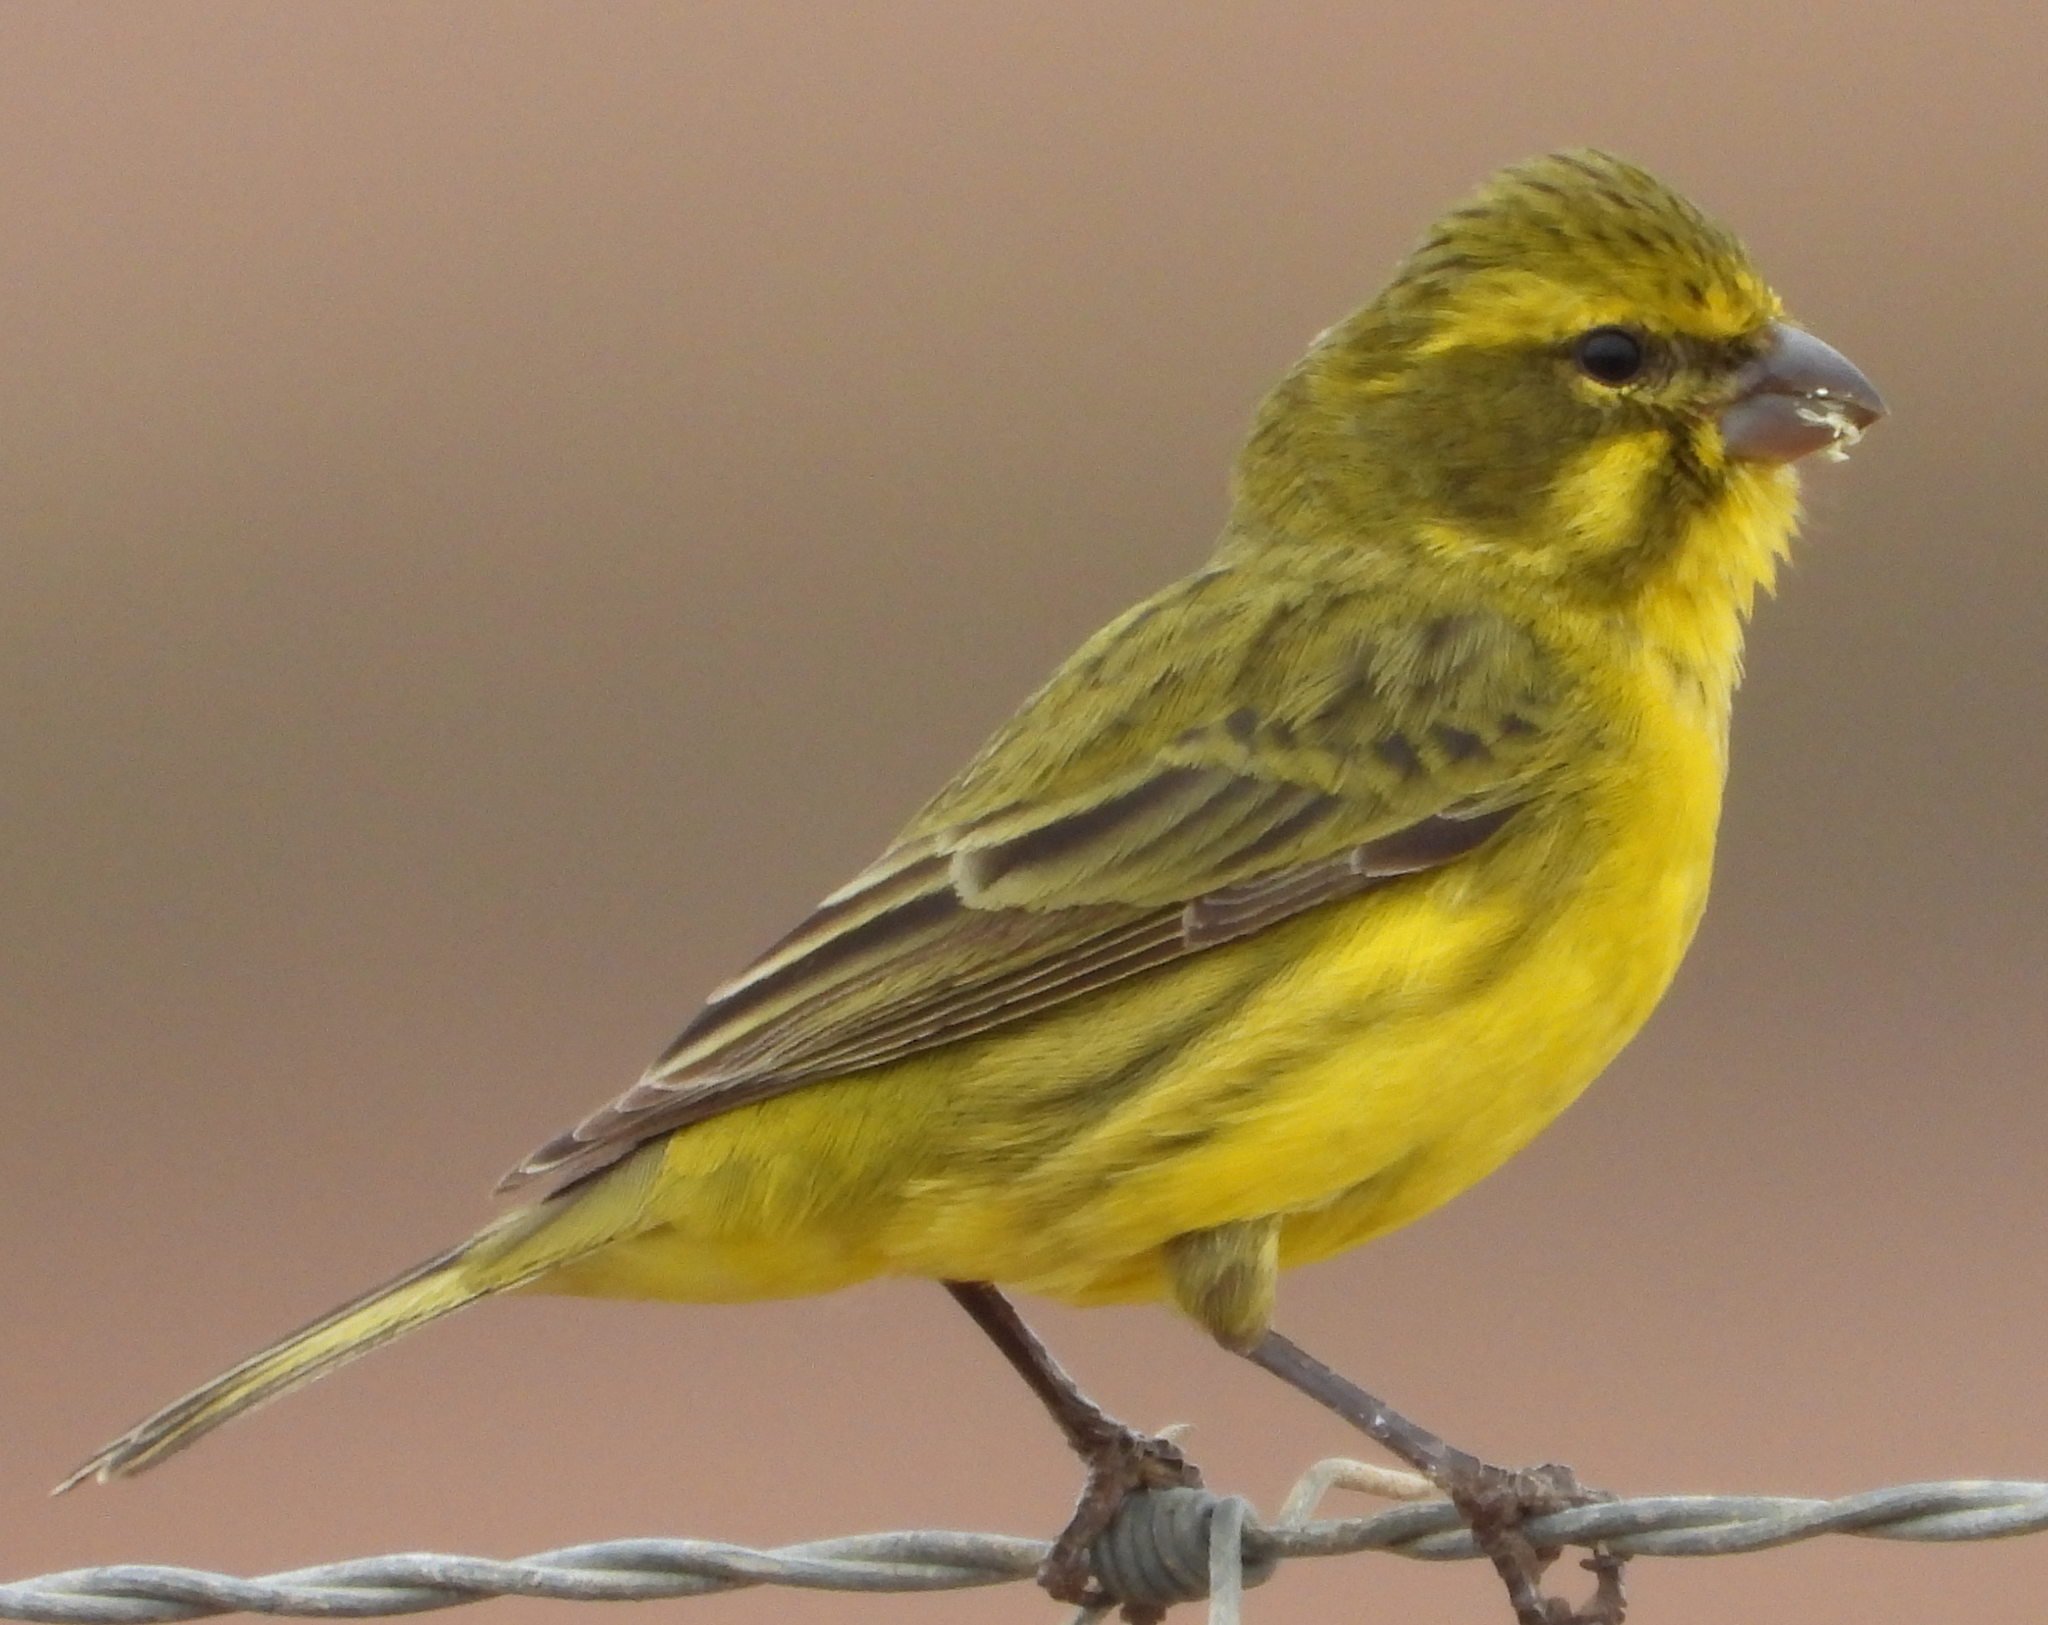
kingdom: Animalia
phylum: Chordata
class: Aves
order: Passeriformes
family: Fringillidae
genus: Crithagra
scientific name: Crithagra flaviventris
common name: Yellow canary
